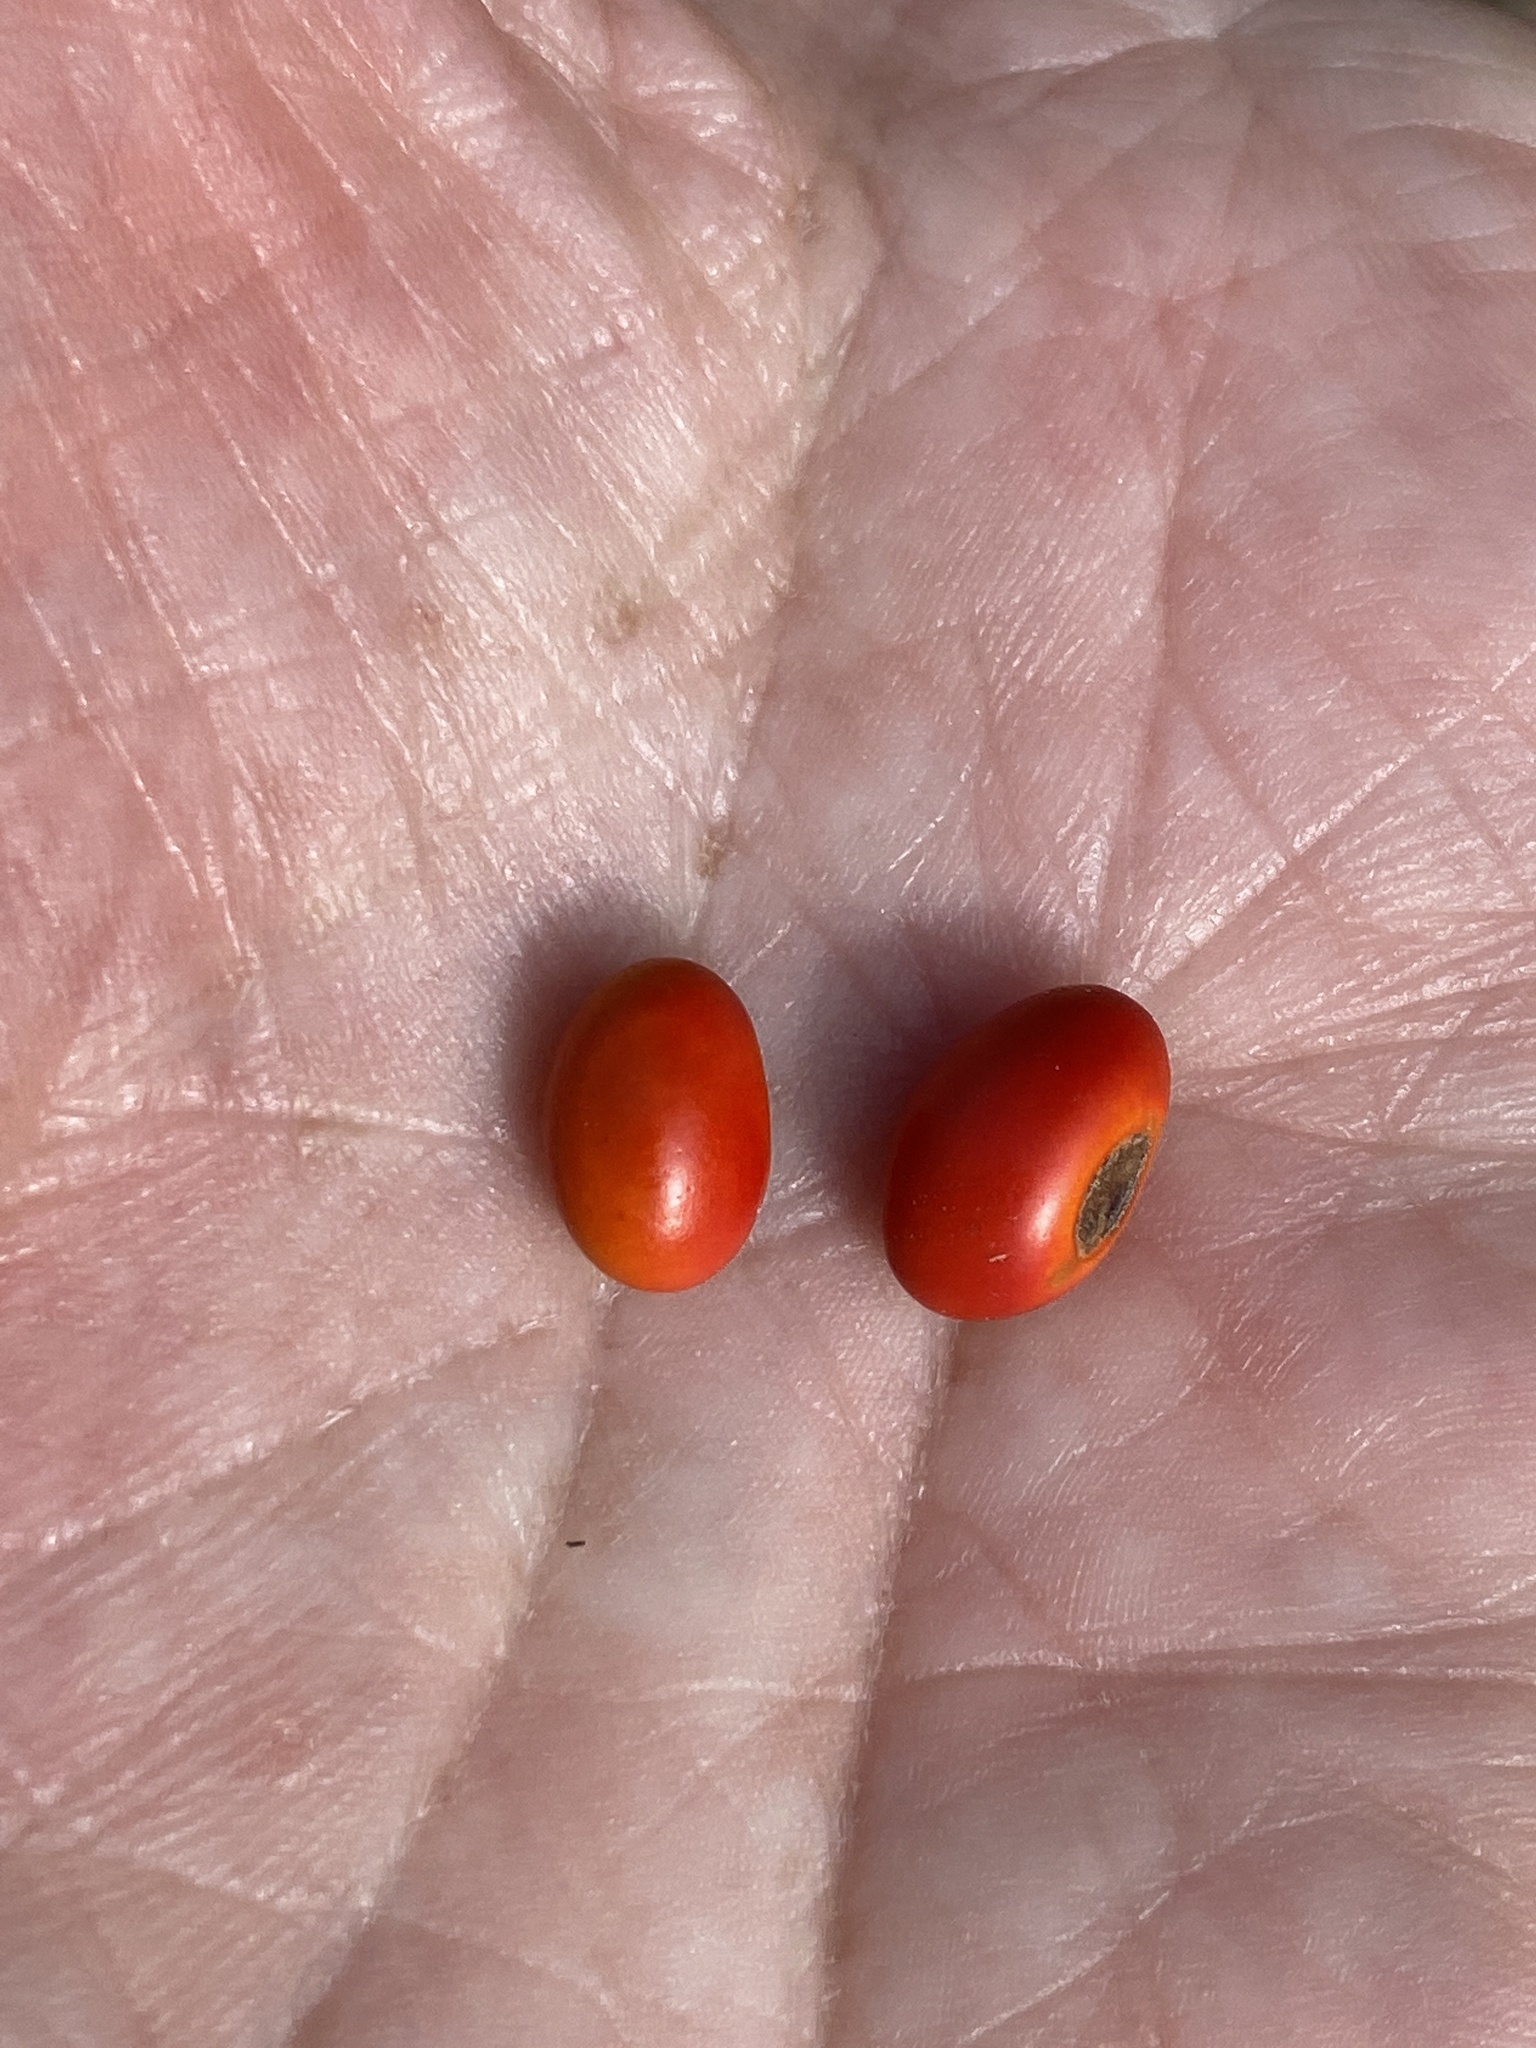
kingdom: Plantae
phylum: Tracheophyta
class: Magnoliopsida
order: Fabales
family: Fabaceae
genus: Erythrina
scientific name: Erythrina herbacea
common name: Coral-bean
